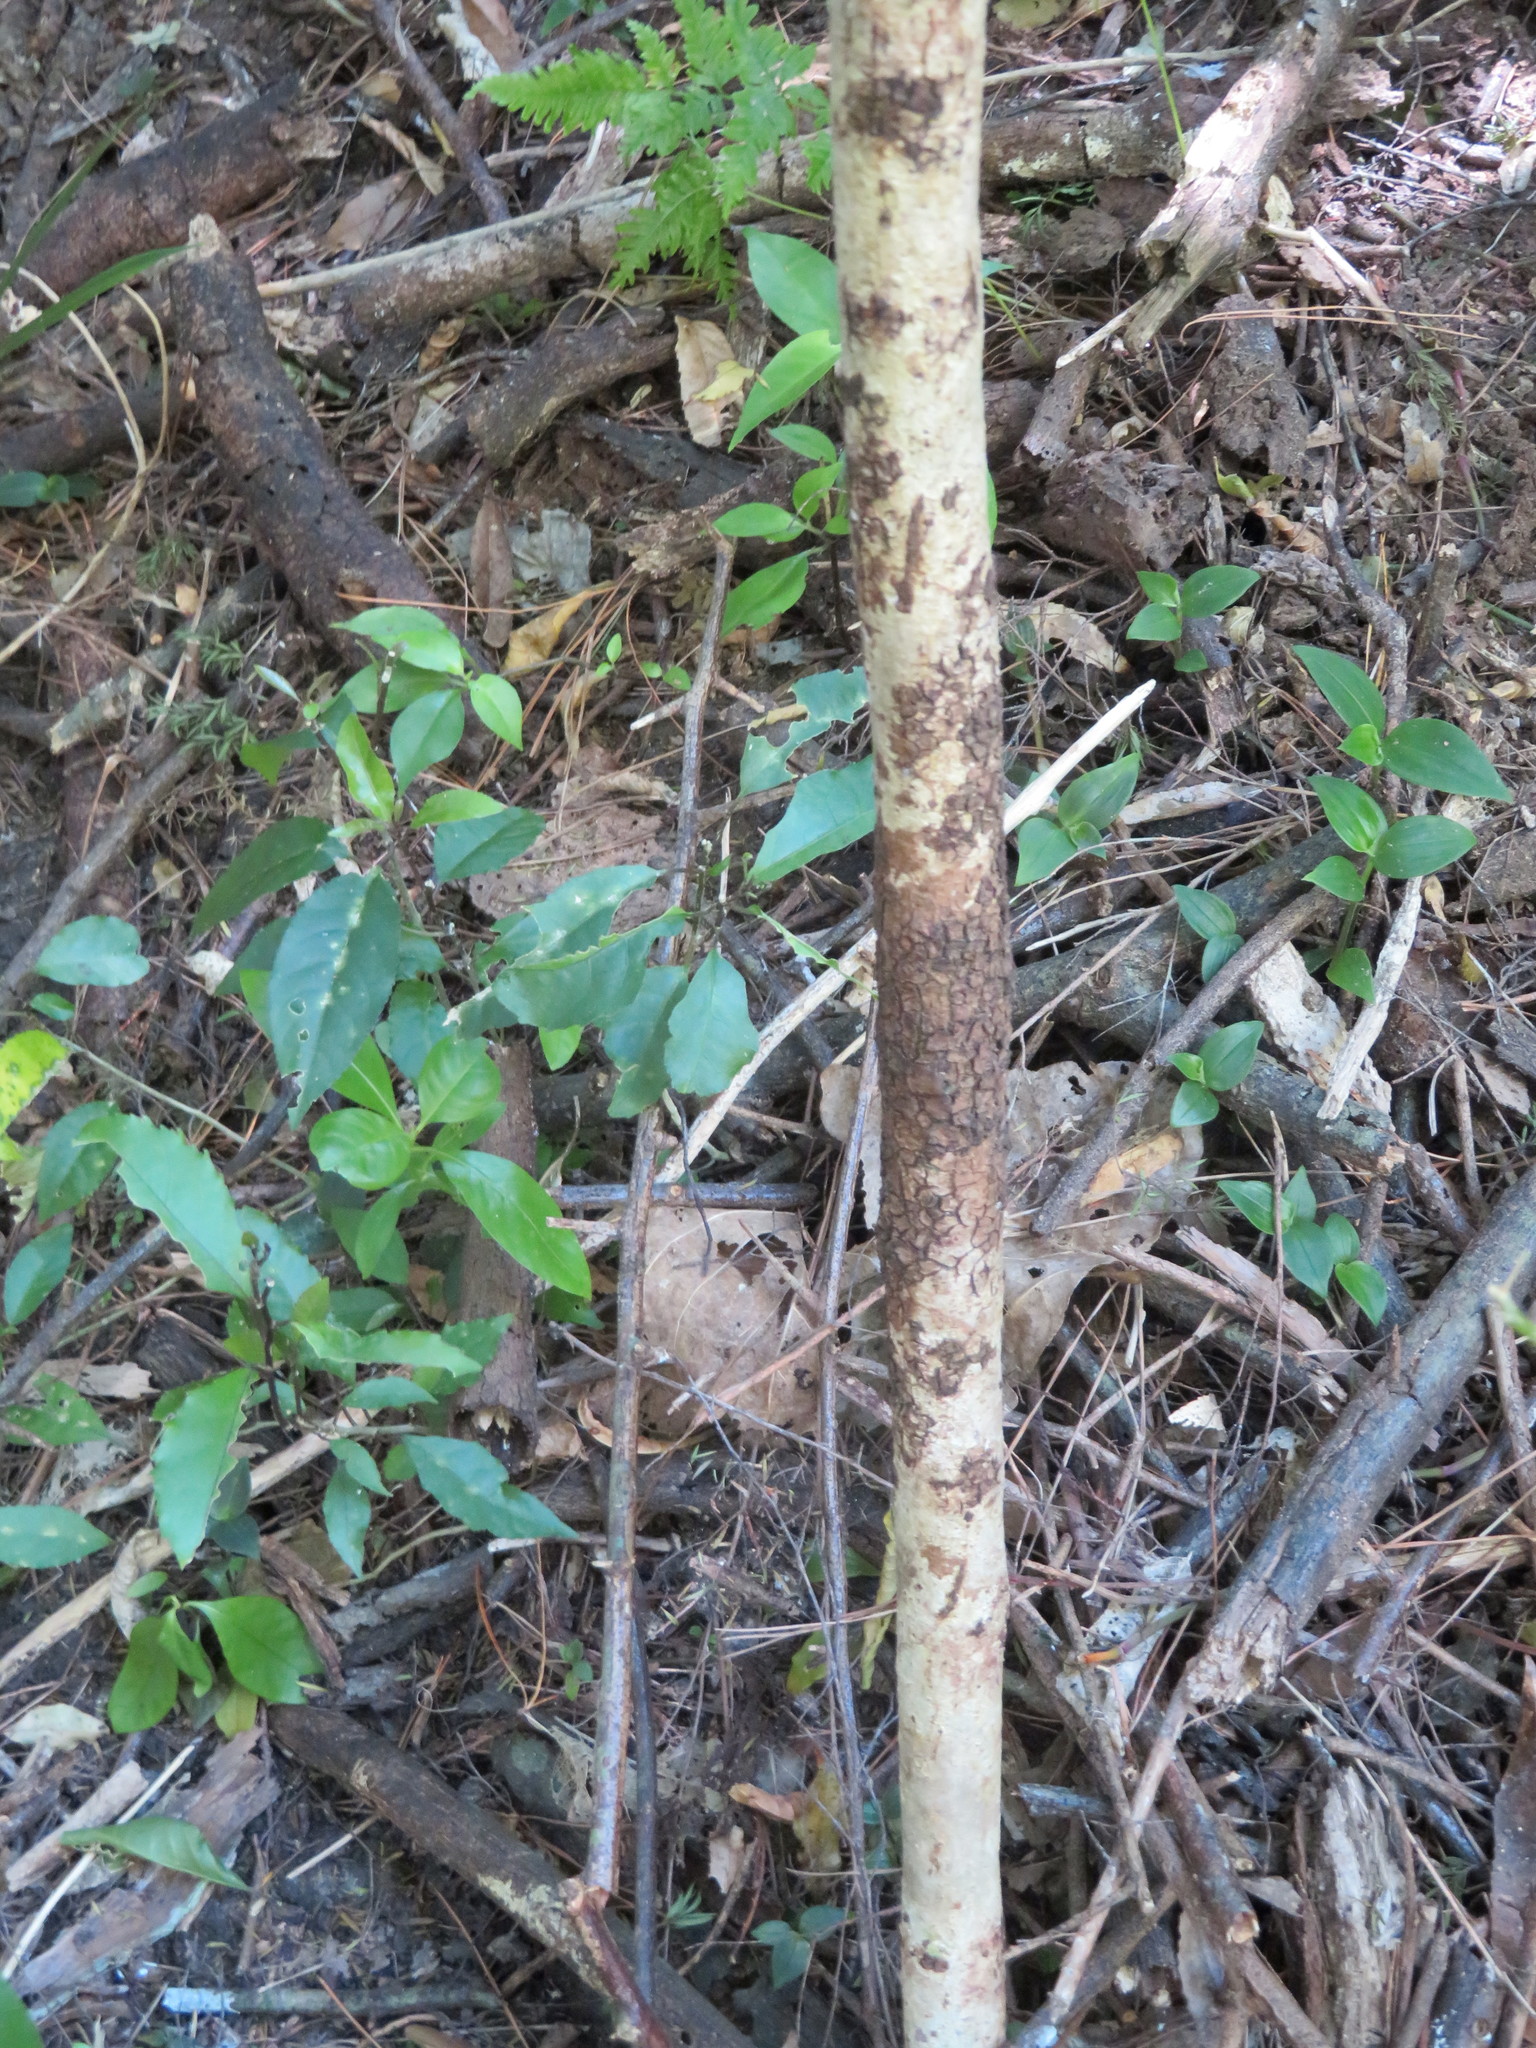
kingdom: Plantae
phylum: Tracheophyta
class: Liliopsida
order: Commelinales
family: Commelinaceae
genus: Tradescantia
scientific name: Tradescantia fluminensis
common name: Wandering-jew
